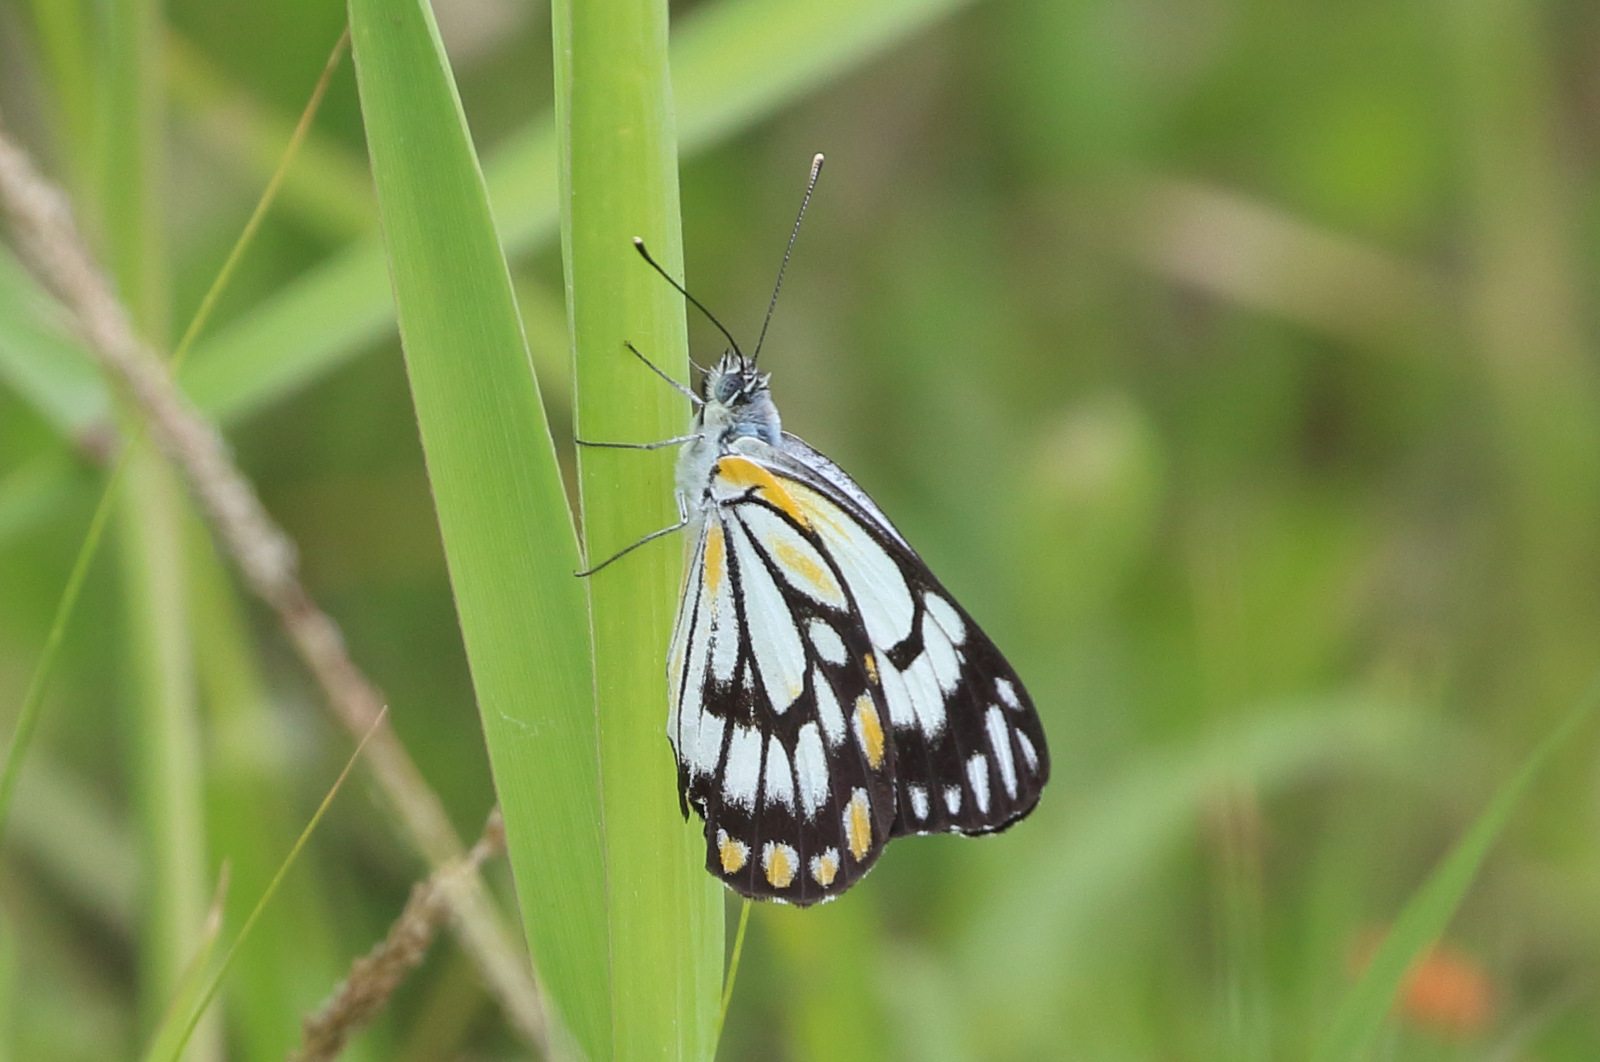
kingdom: Animalia
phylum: Arthropoda
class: Insecta
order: Lepidoptera
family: Pieridae
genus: Belenois
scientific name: Belenois java
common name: Caper white
